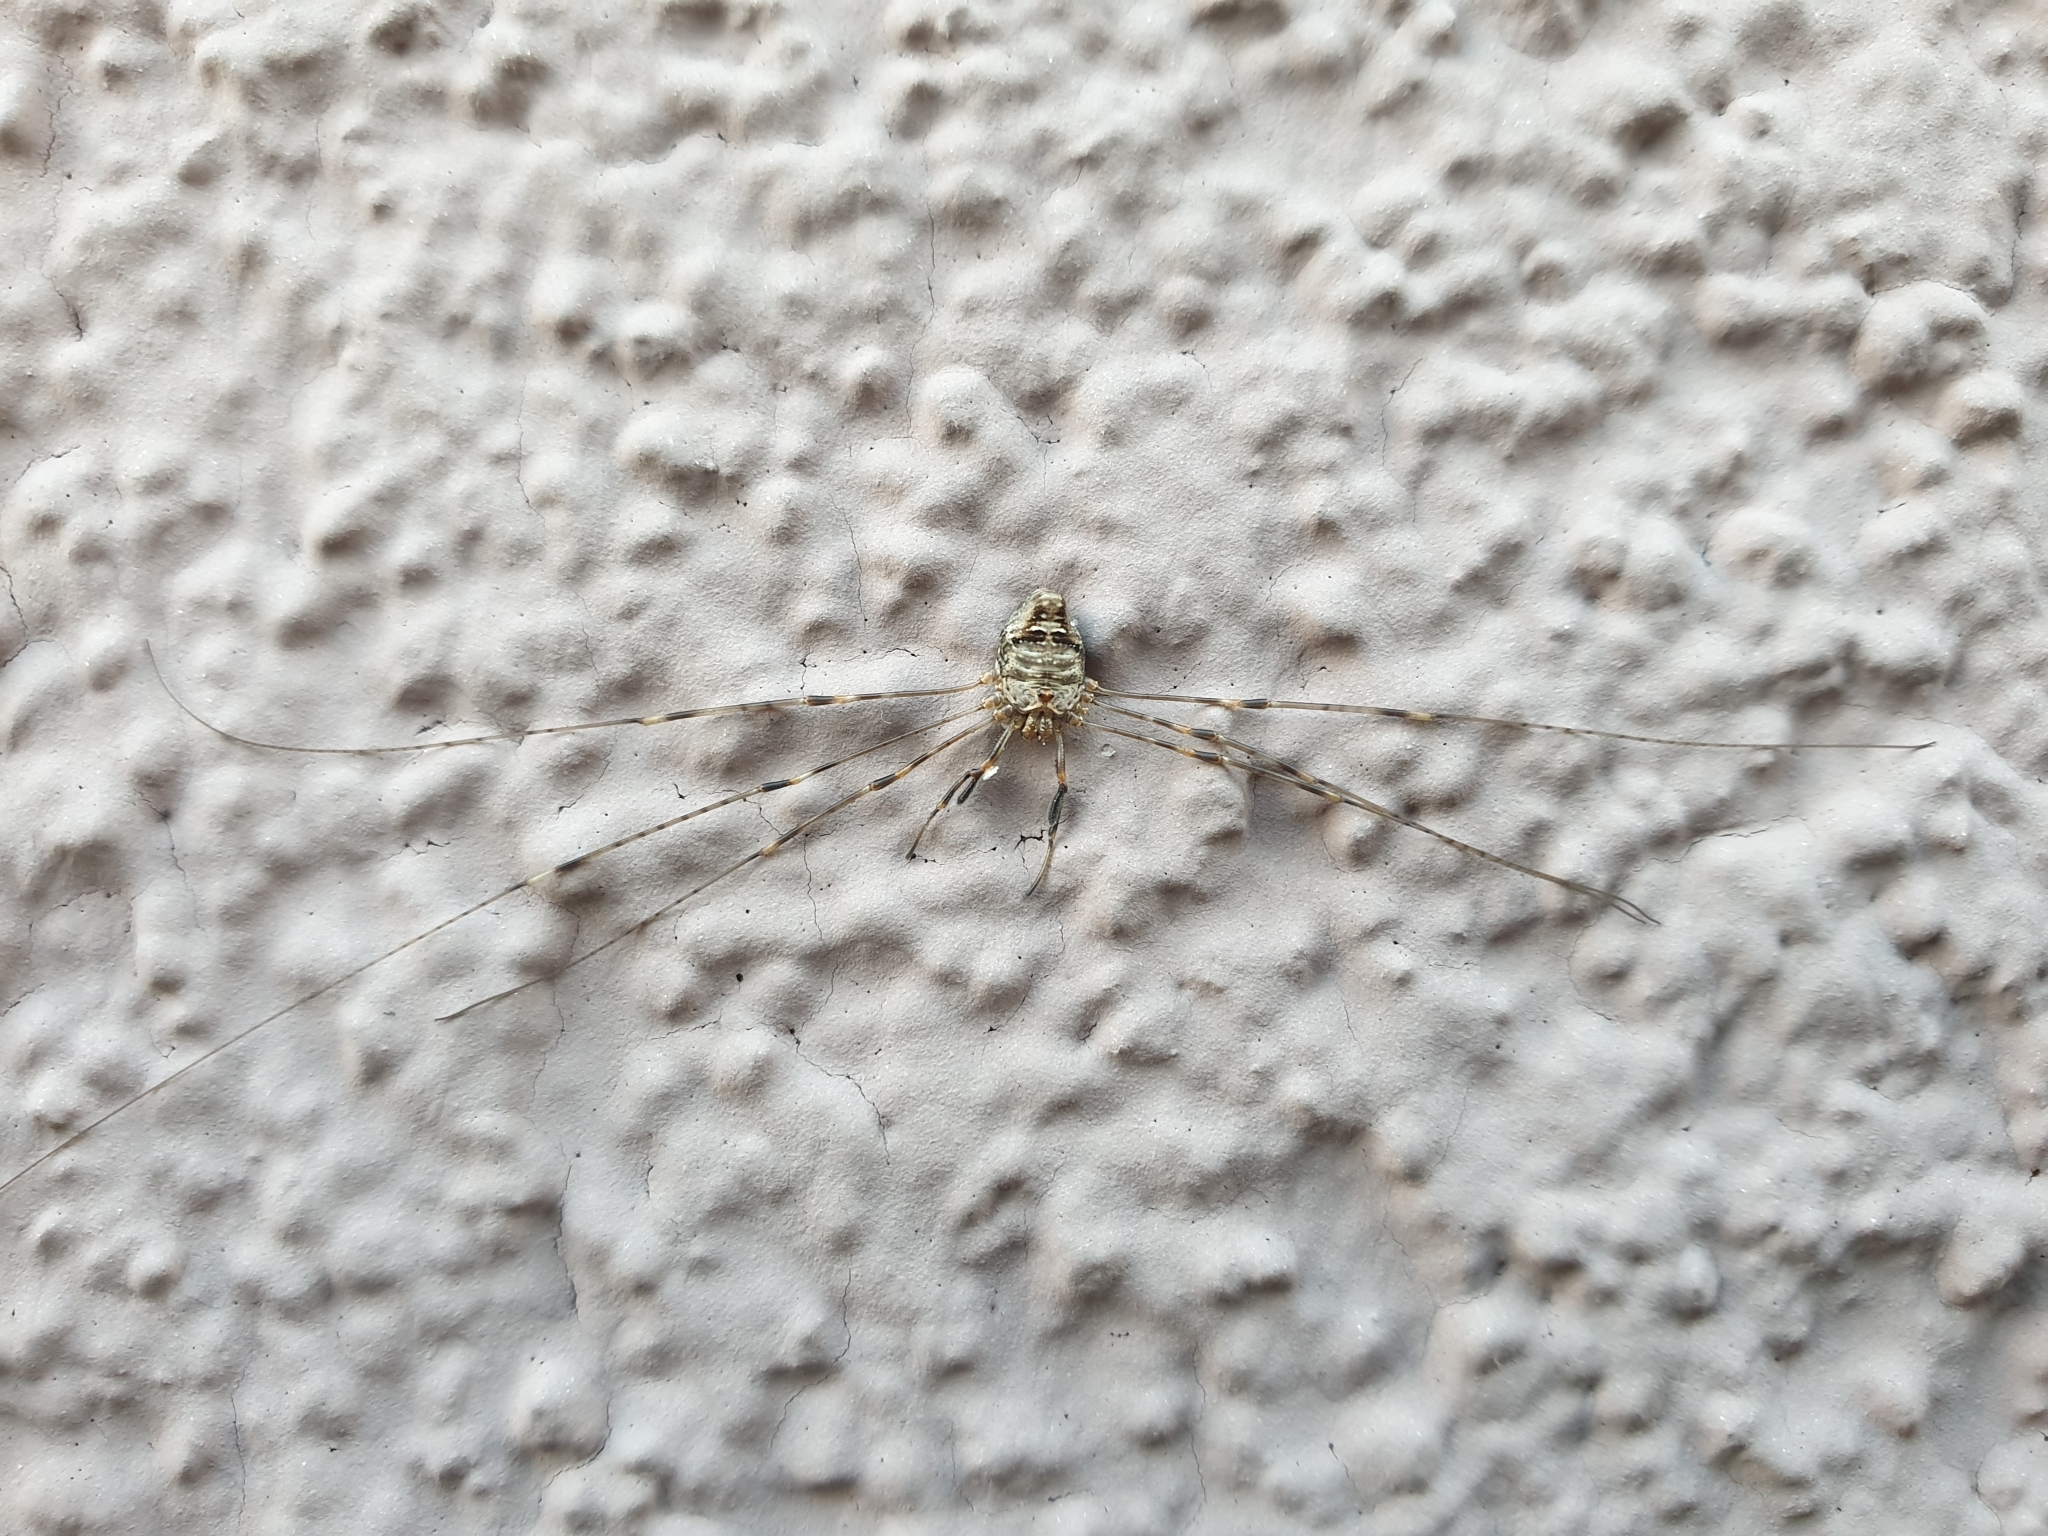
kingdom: Animalia
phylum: Arthropoda
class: Arachnida
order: Opiliones
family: Phalangiidae
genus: Dicranopalpus
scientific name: Dicranopalpus ramosus
